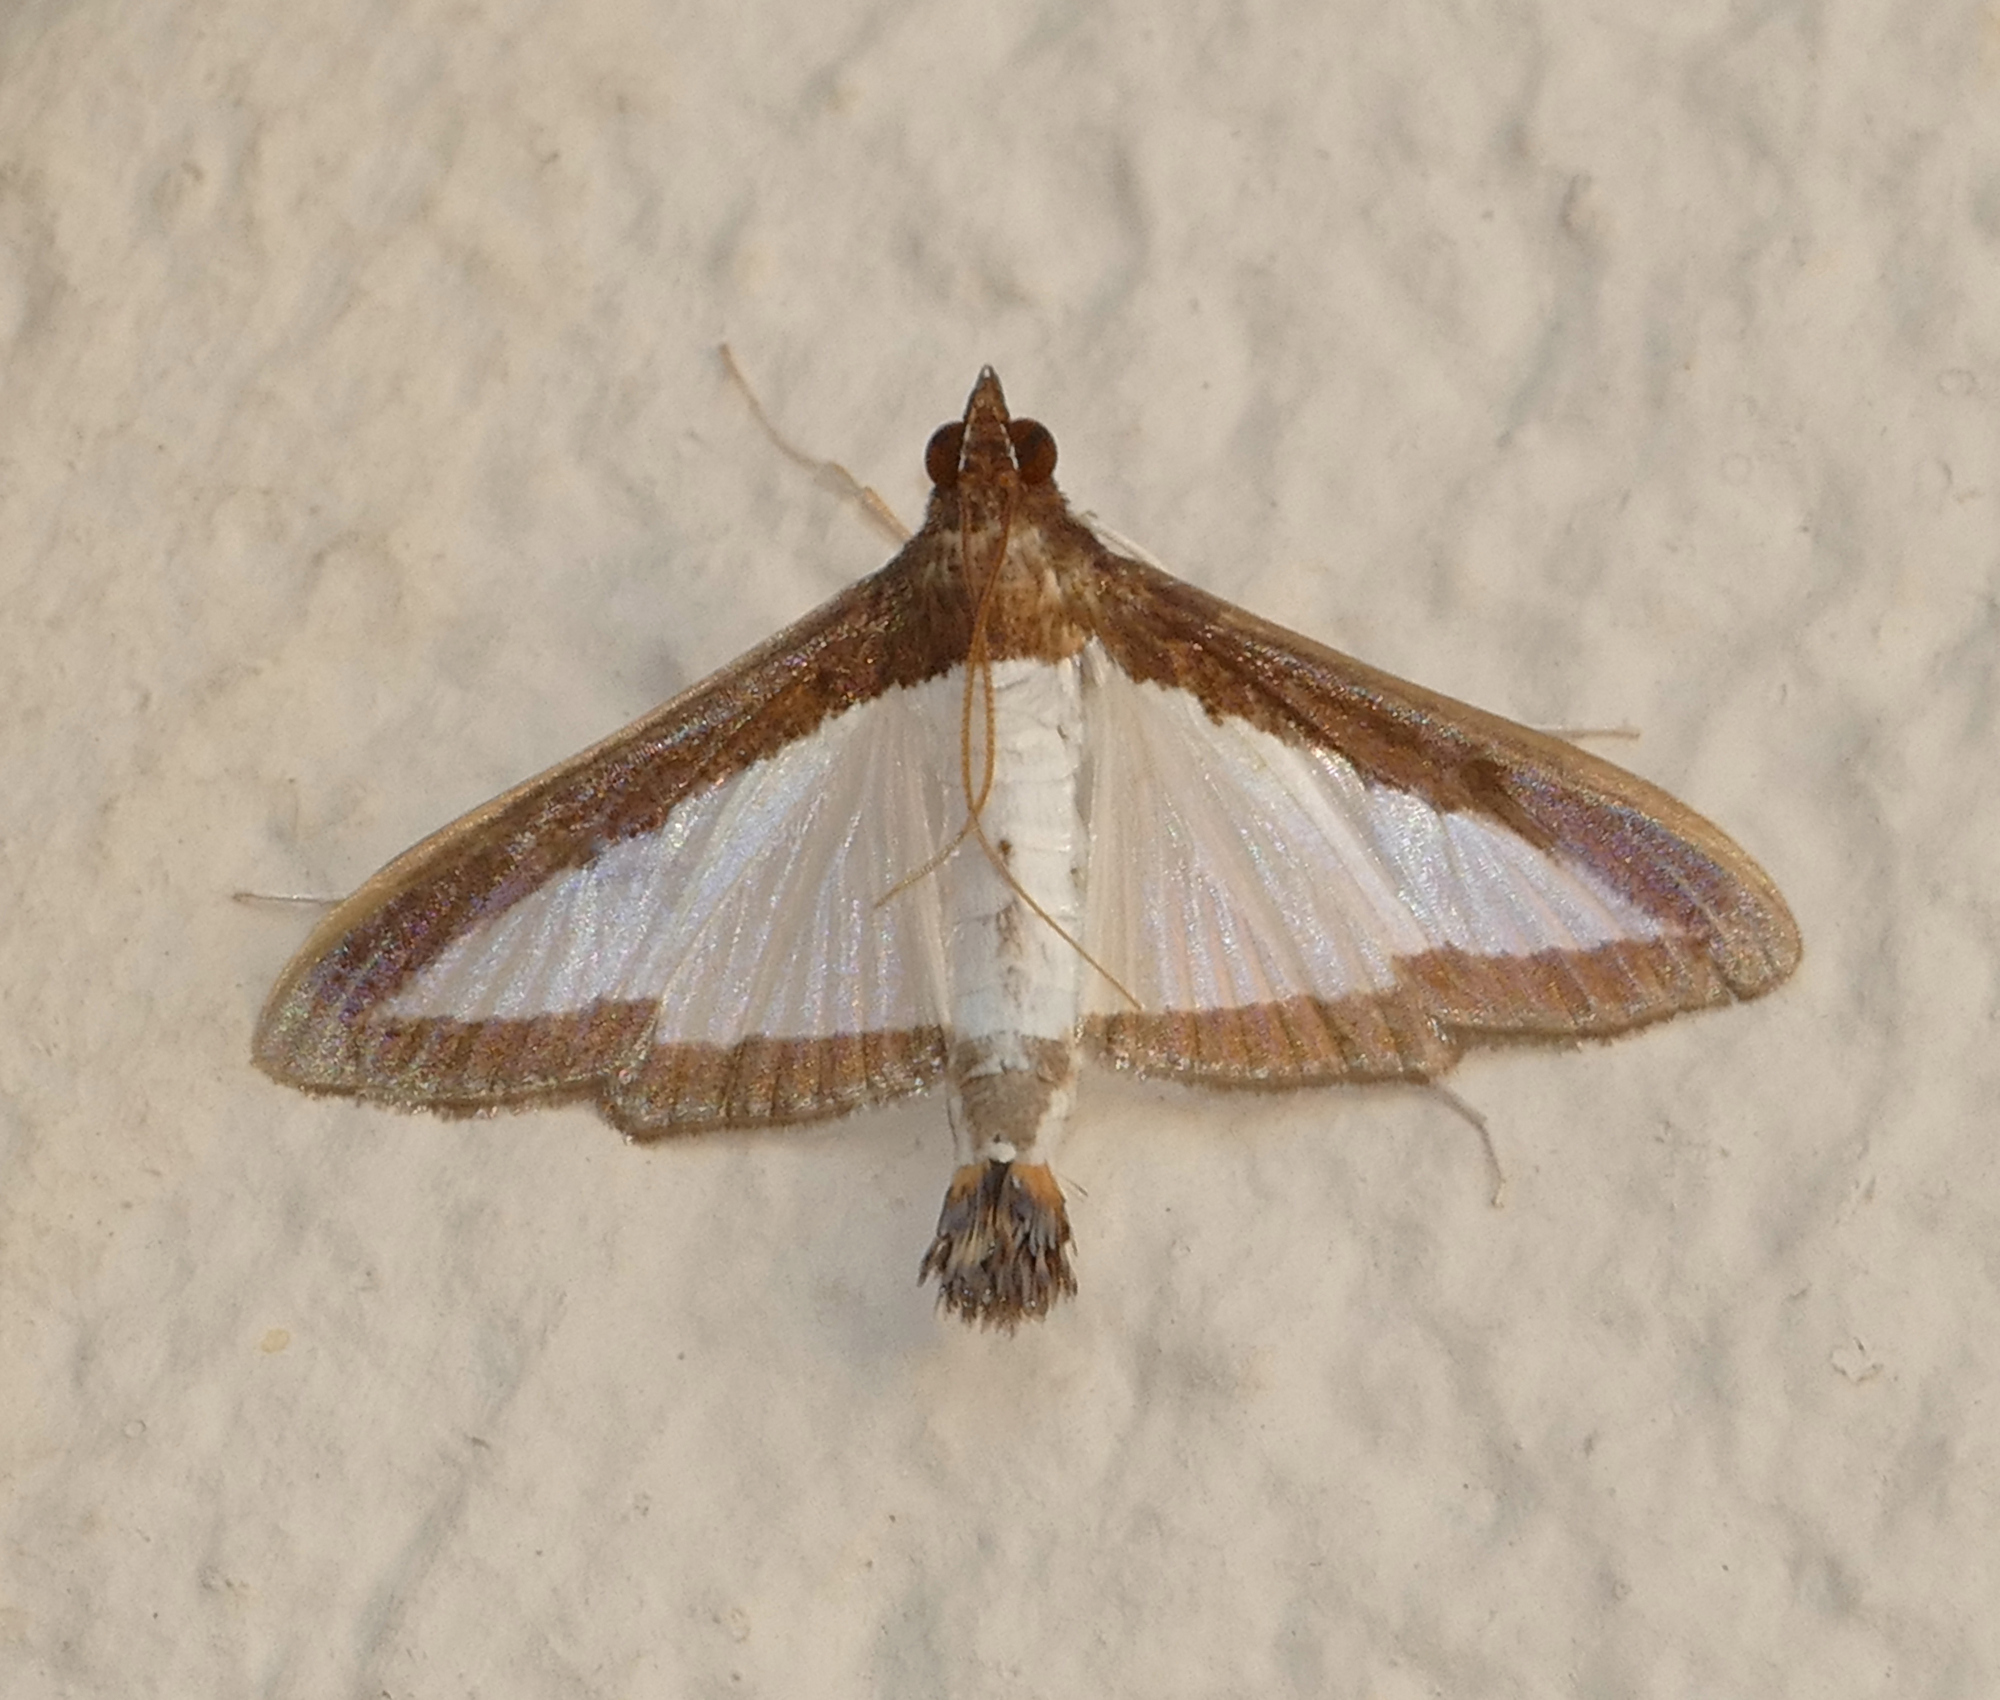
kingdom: Animalia
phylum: Arthropoda
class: Insecta
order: Lepidoptera
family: Crambidae
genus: Diaphania
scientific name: Diaphania hyalinata
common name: Melonworm
